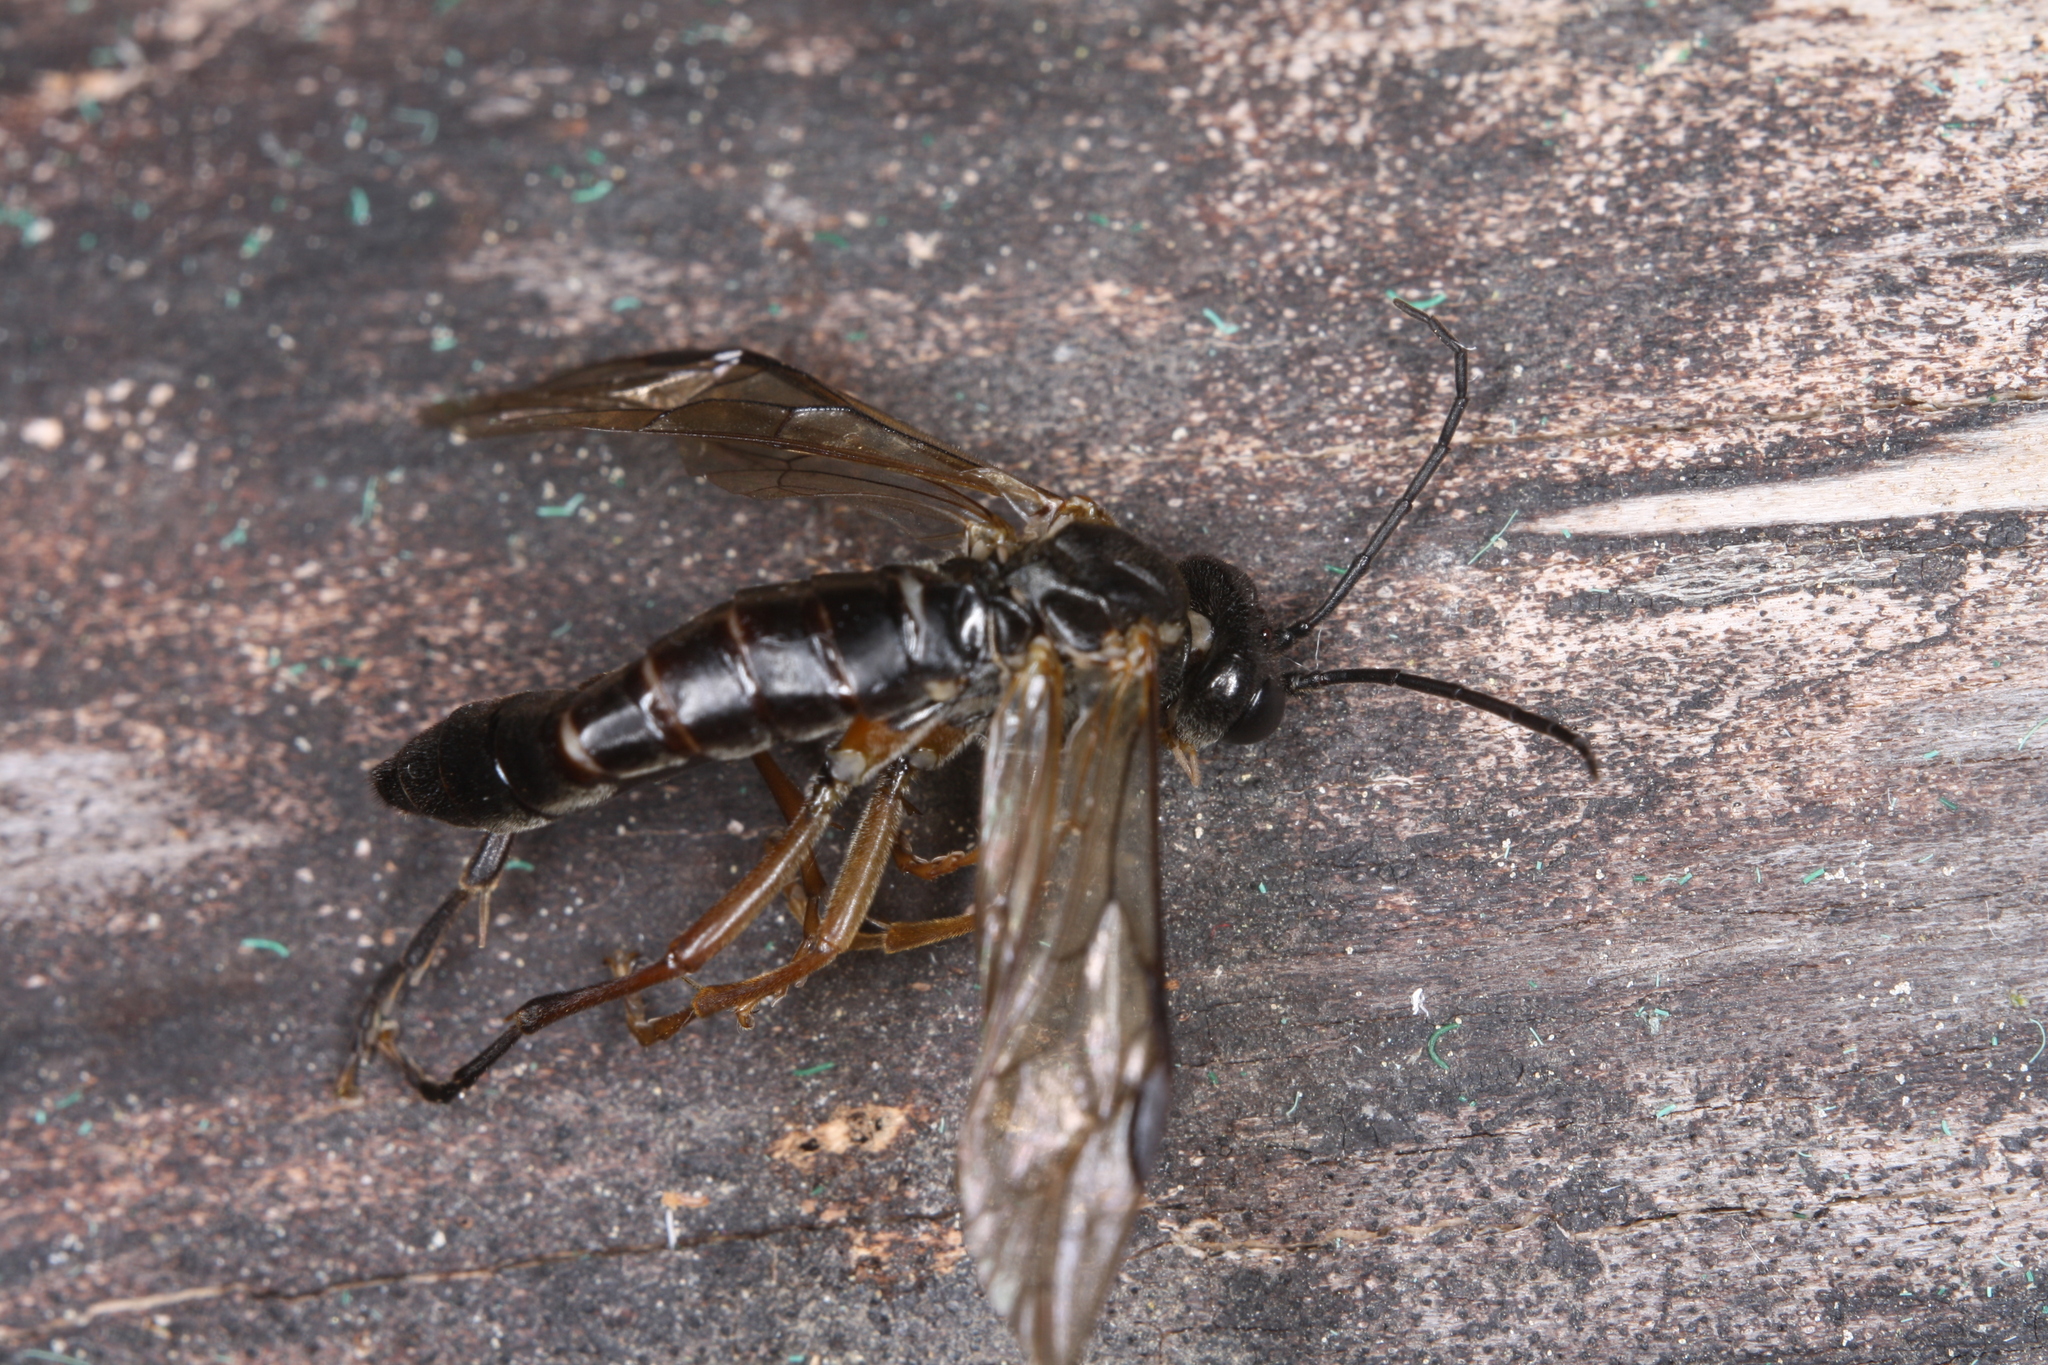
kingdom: Animalia
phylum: Arthropoda
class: Insecta
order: Hymenoptera
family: Tenthredinidae
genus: Tenthredo
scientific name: Tenthredo rubricoxis
